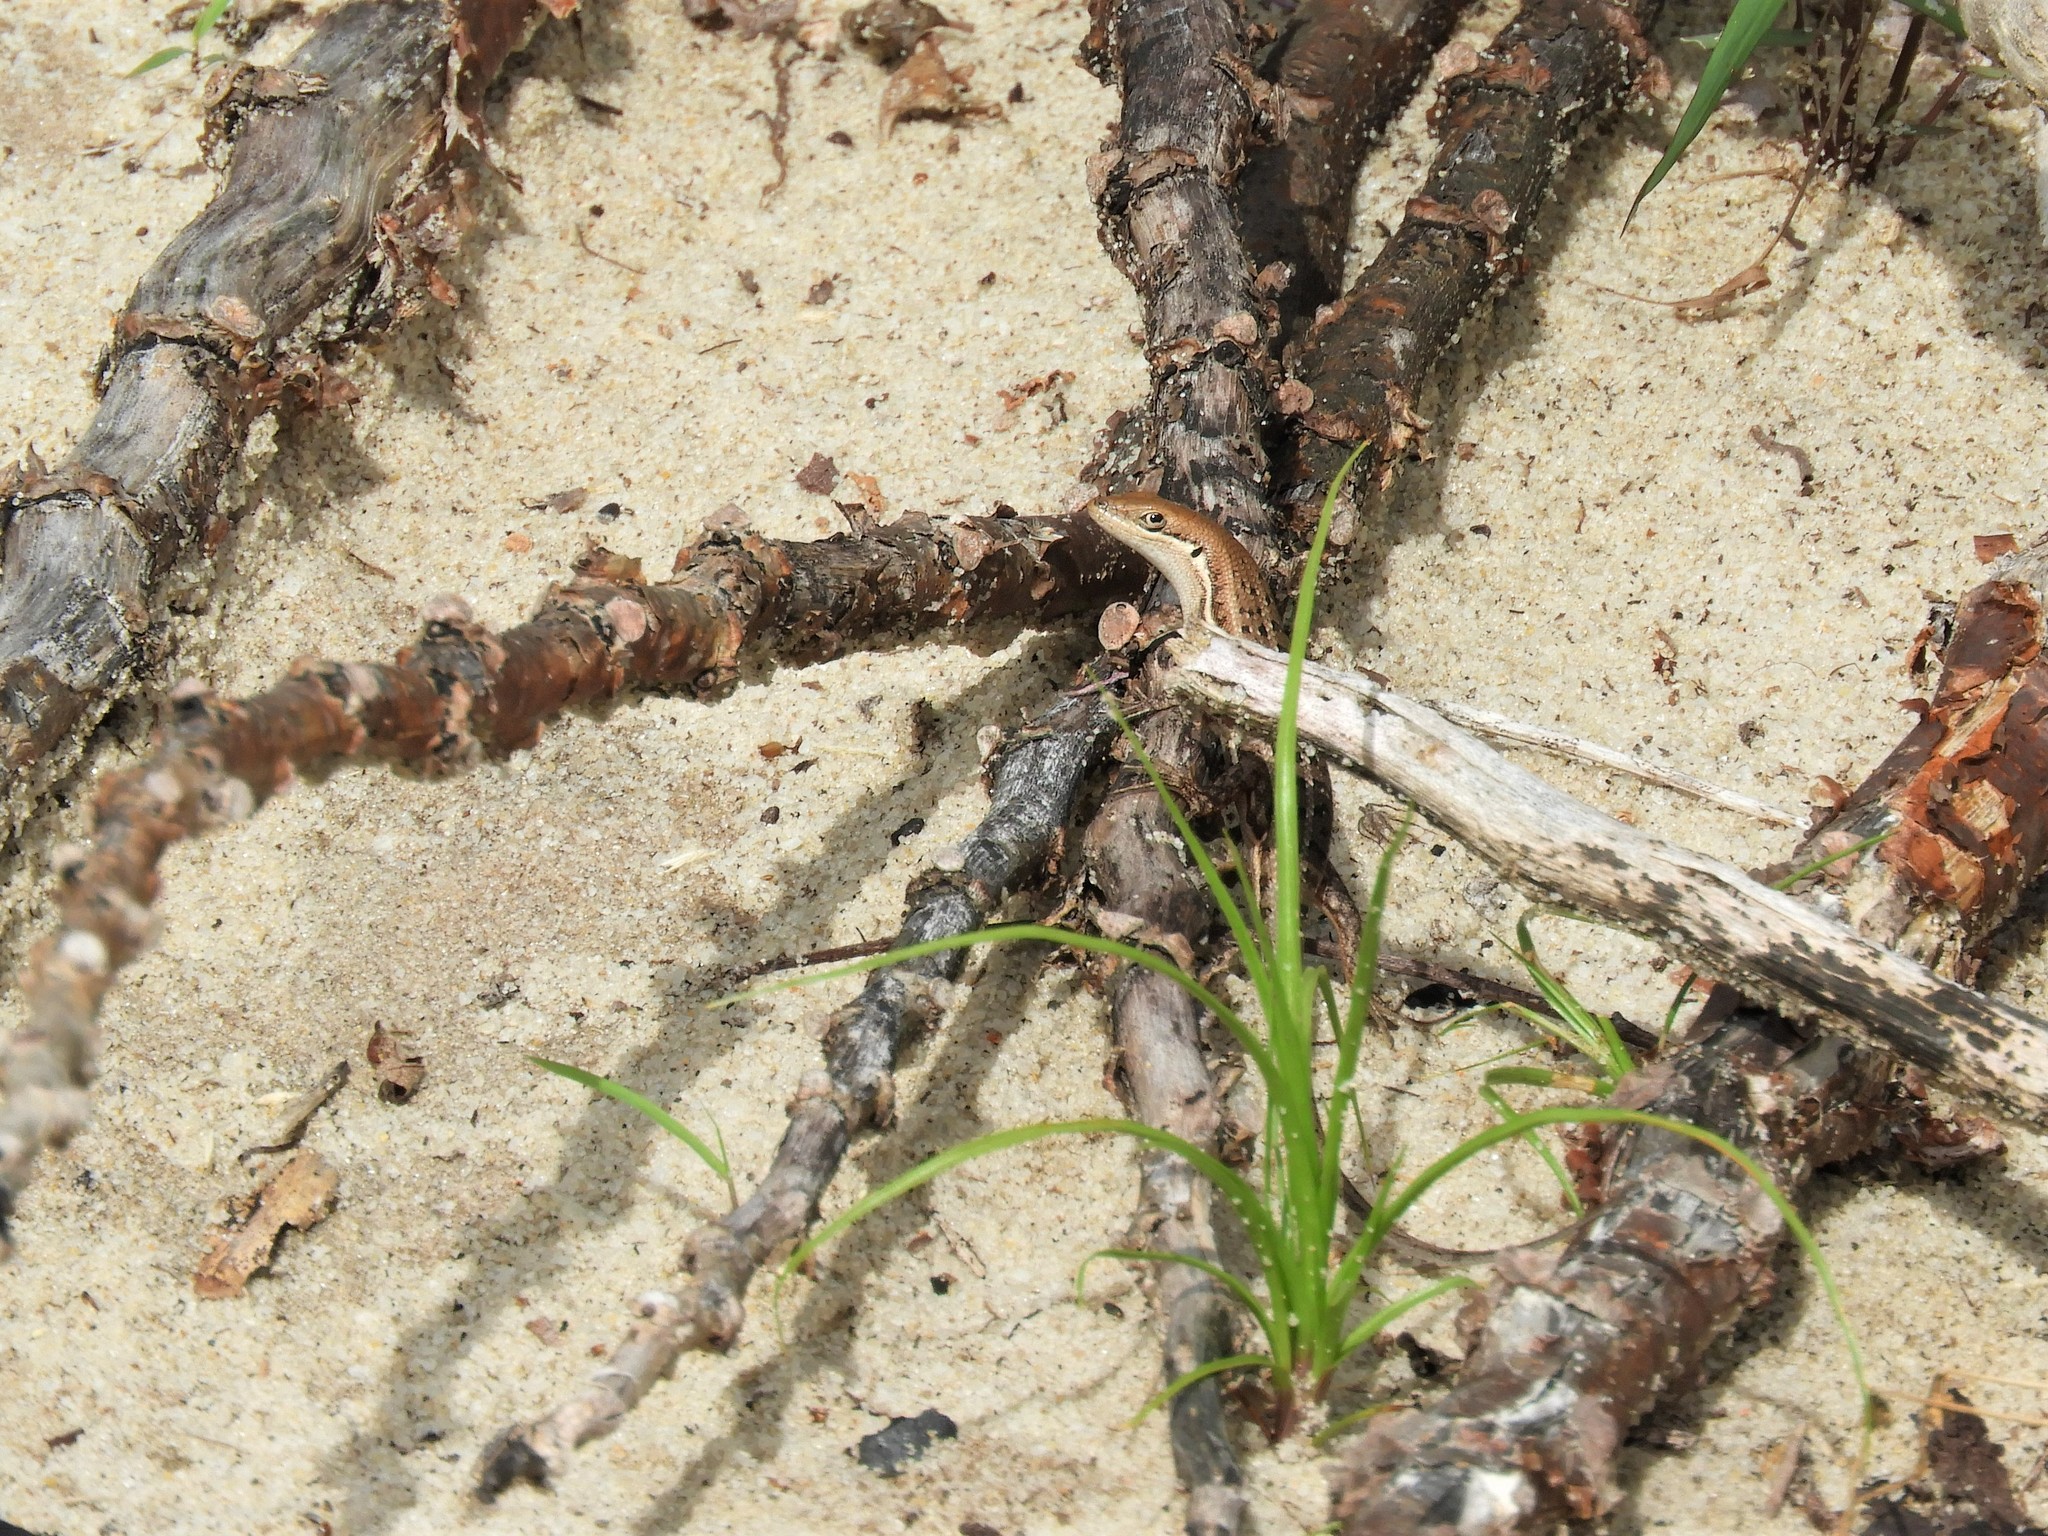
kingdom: Animalia
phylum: Chordata
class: Squamata
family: Scincidae
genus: Trachylepis
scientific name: Trachylepis varia
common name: Eastern variable skink
